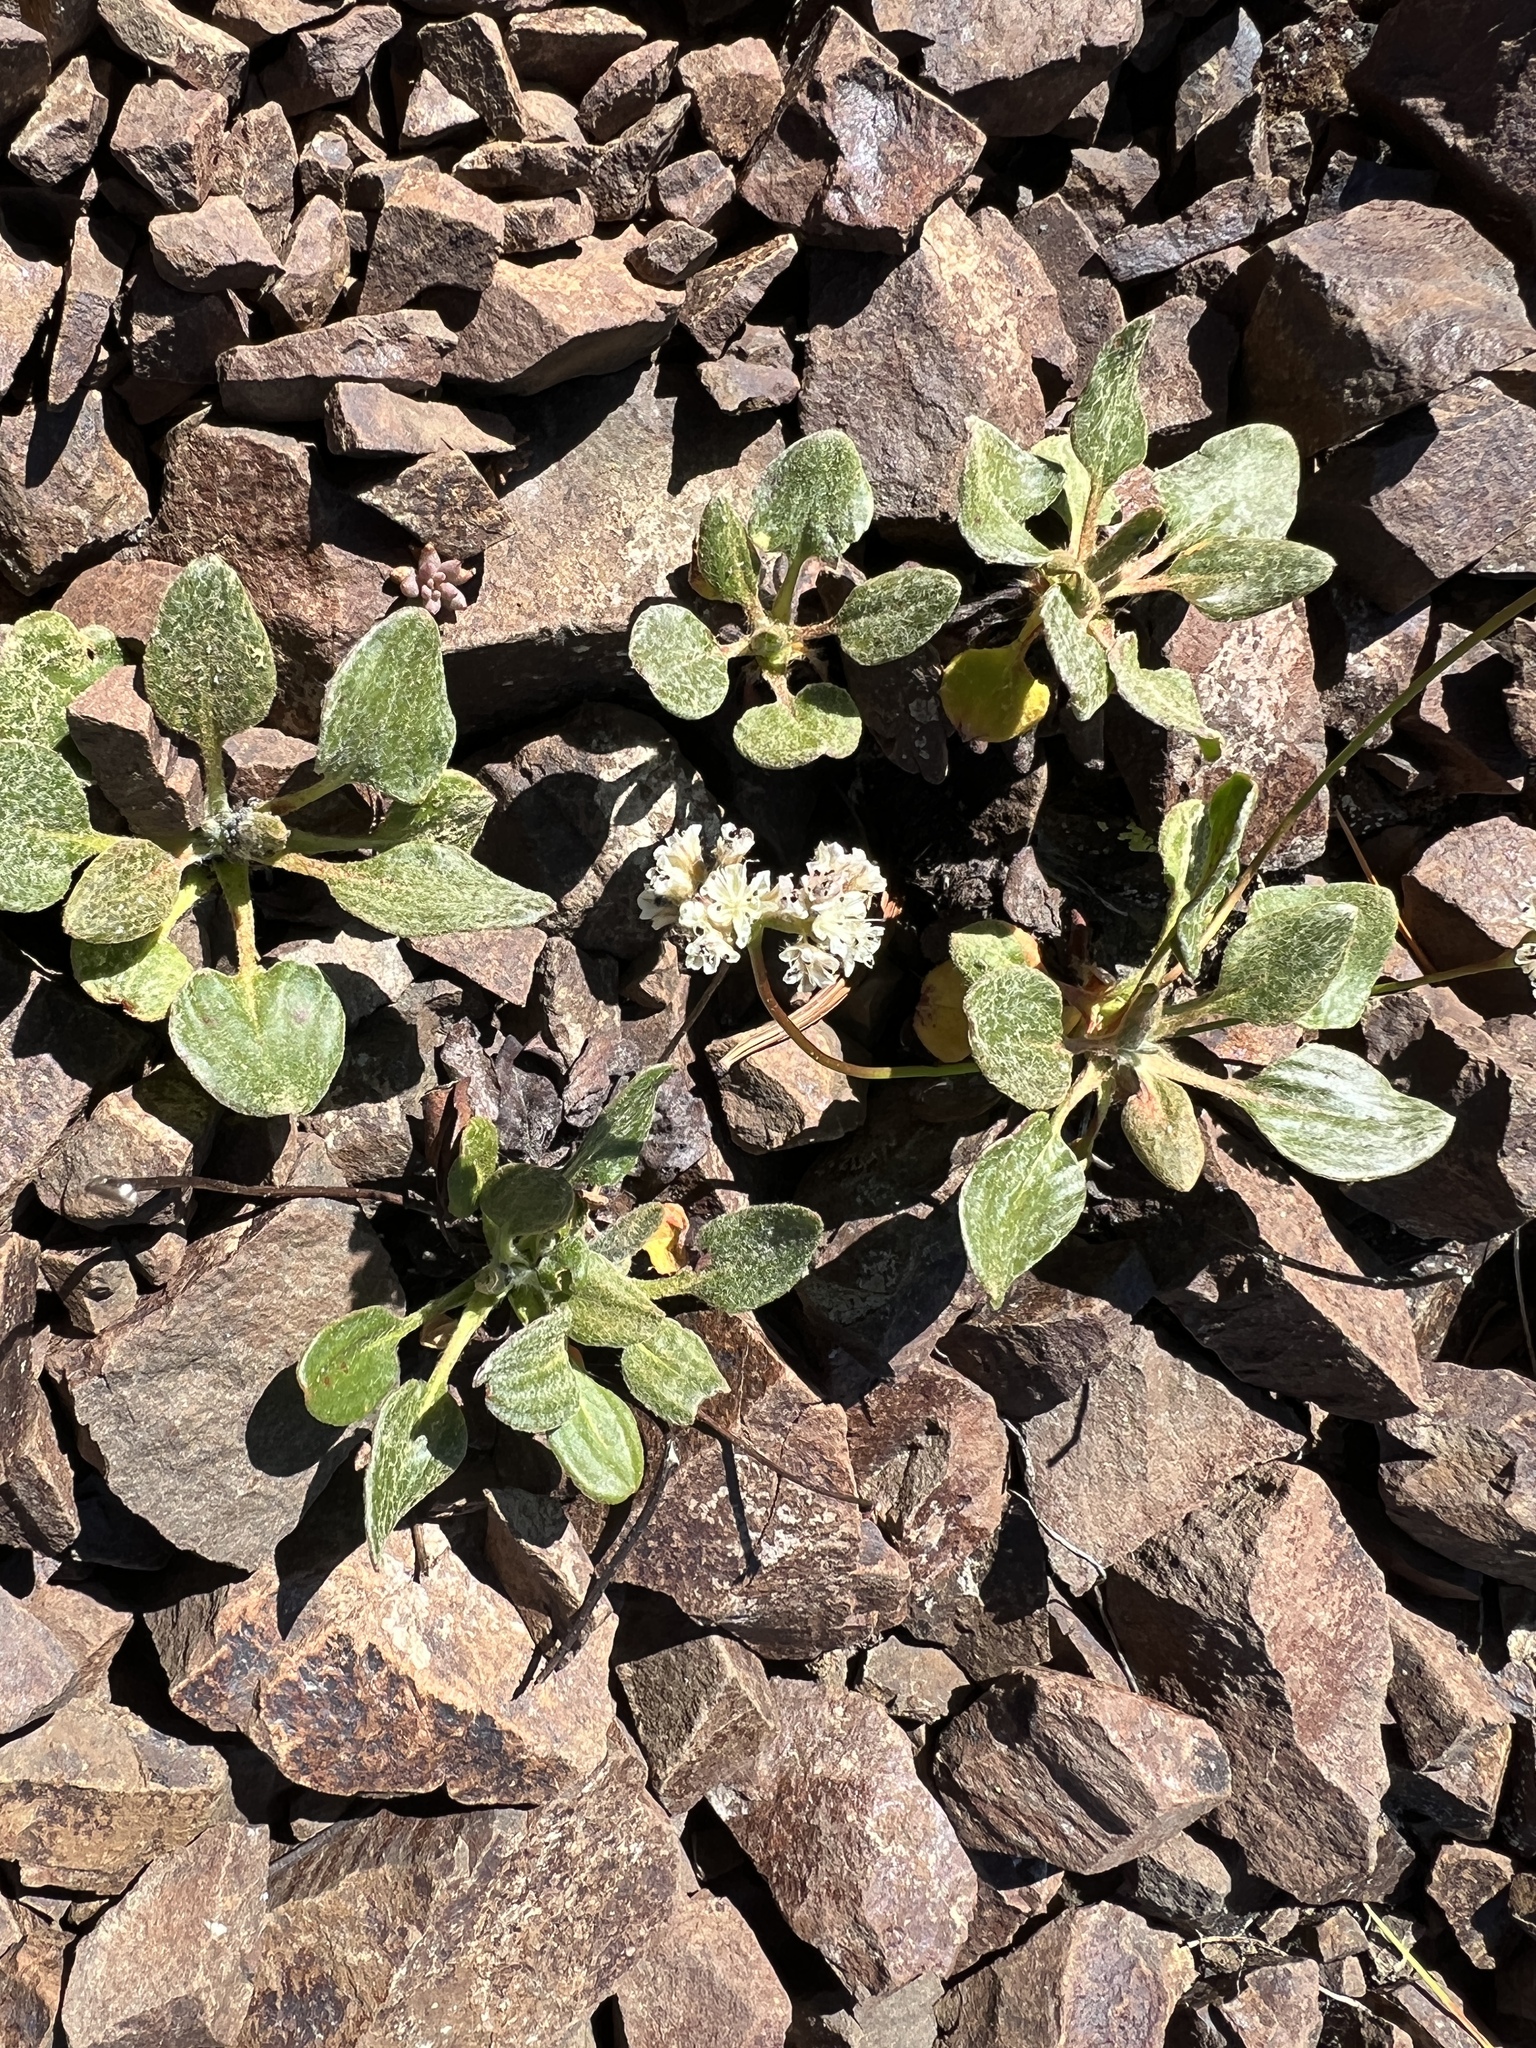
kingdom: Plantae
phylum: Tracheophyta
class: Magnoliopsida
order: Caryophyllales
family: Polygonaceae
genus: Eriogonum
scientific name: Eriogonum pyrolifolium
